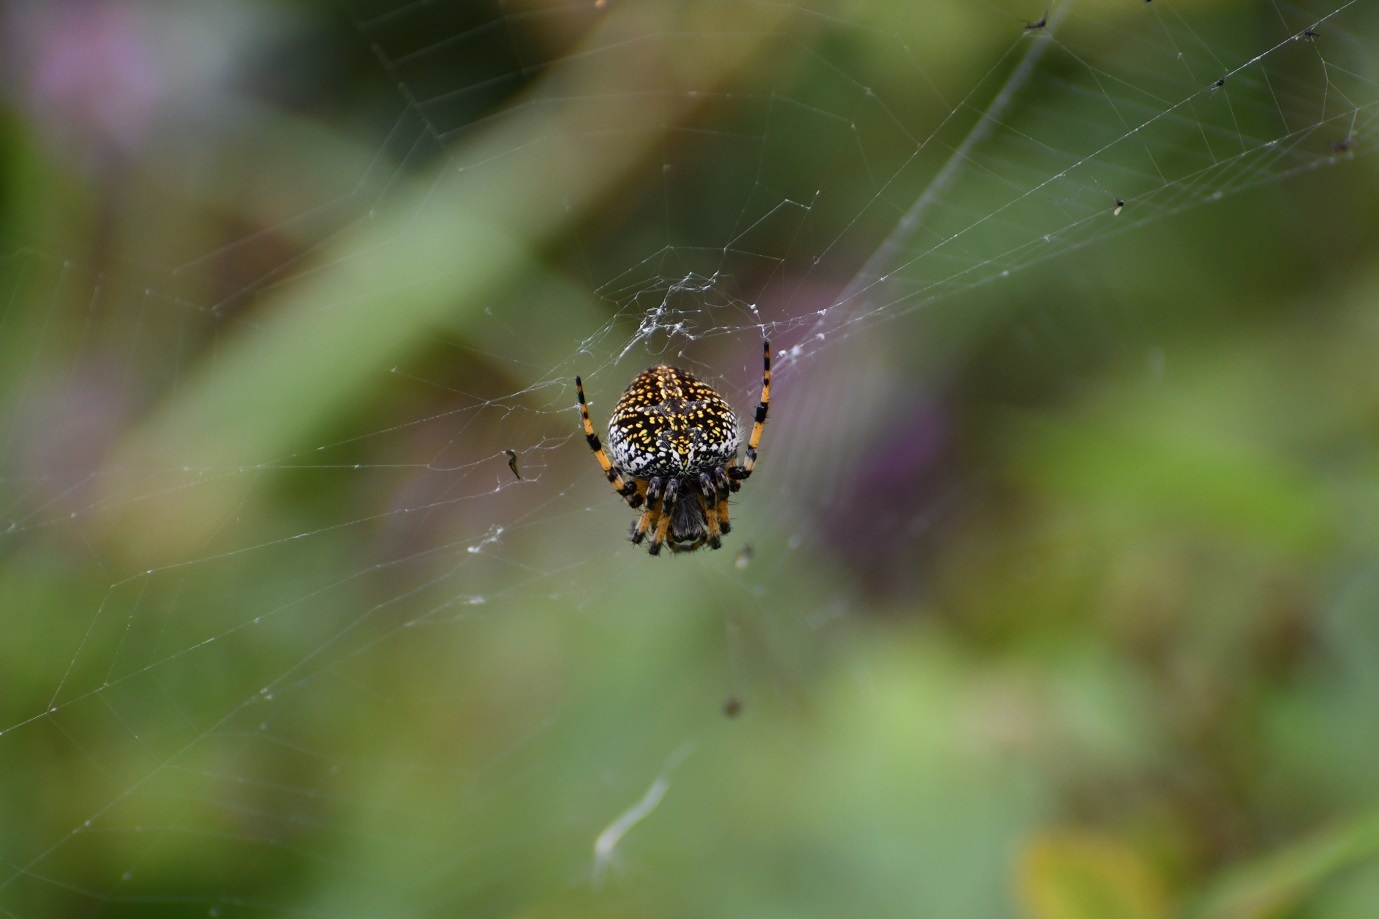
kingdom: Animalia
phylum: Arthropoda
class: Arachnida
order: Araneae
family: Araneidae
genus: Neoscona
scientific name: Neoscona orizabensis
